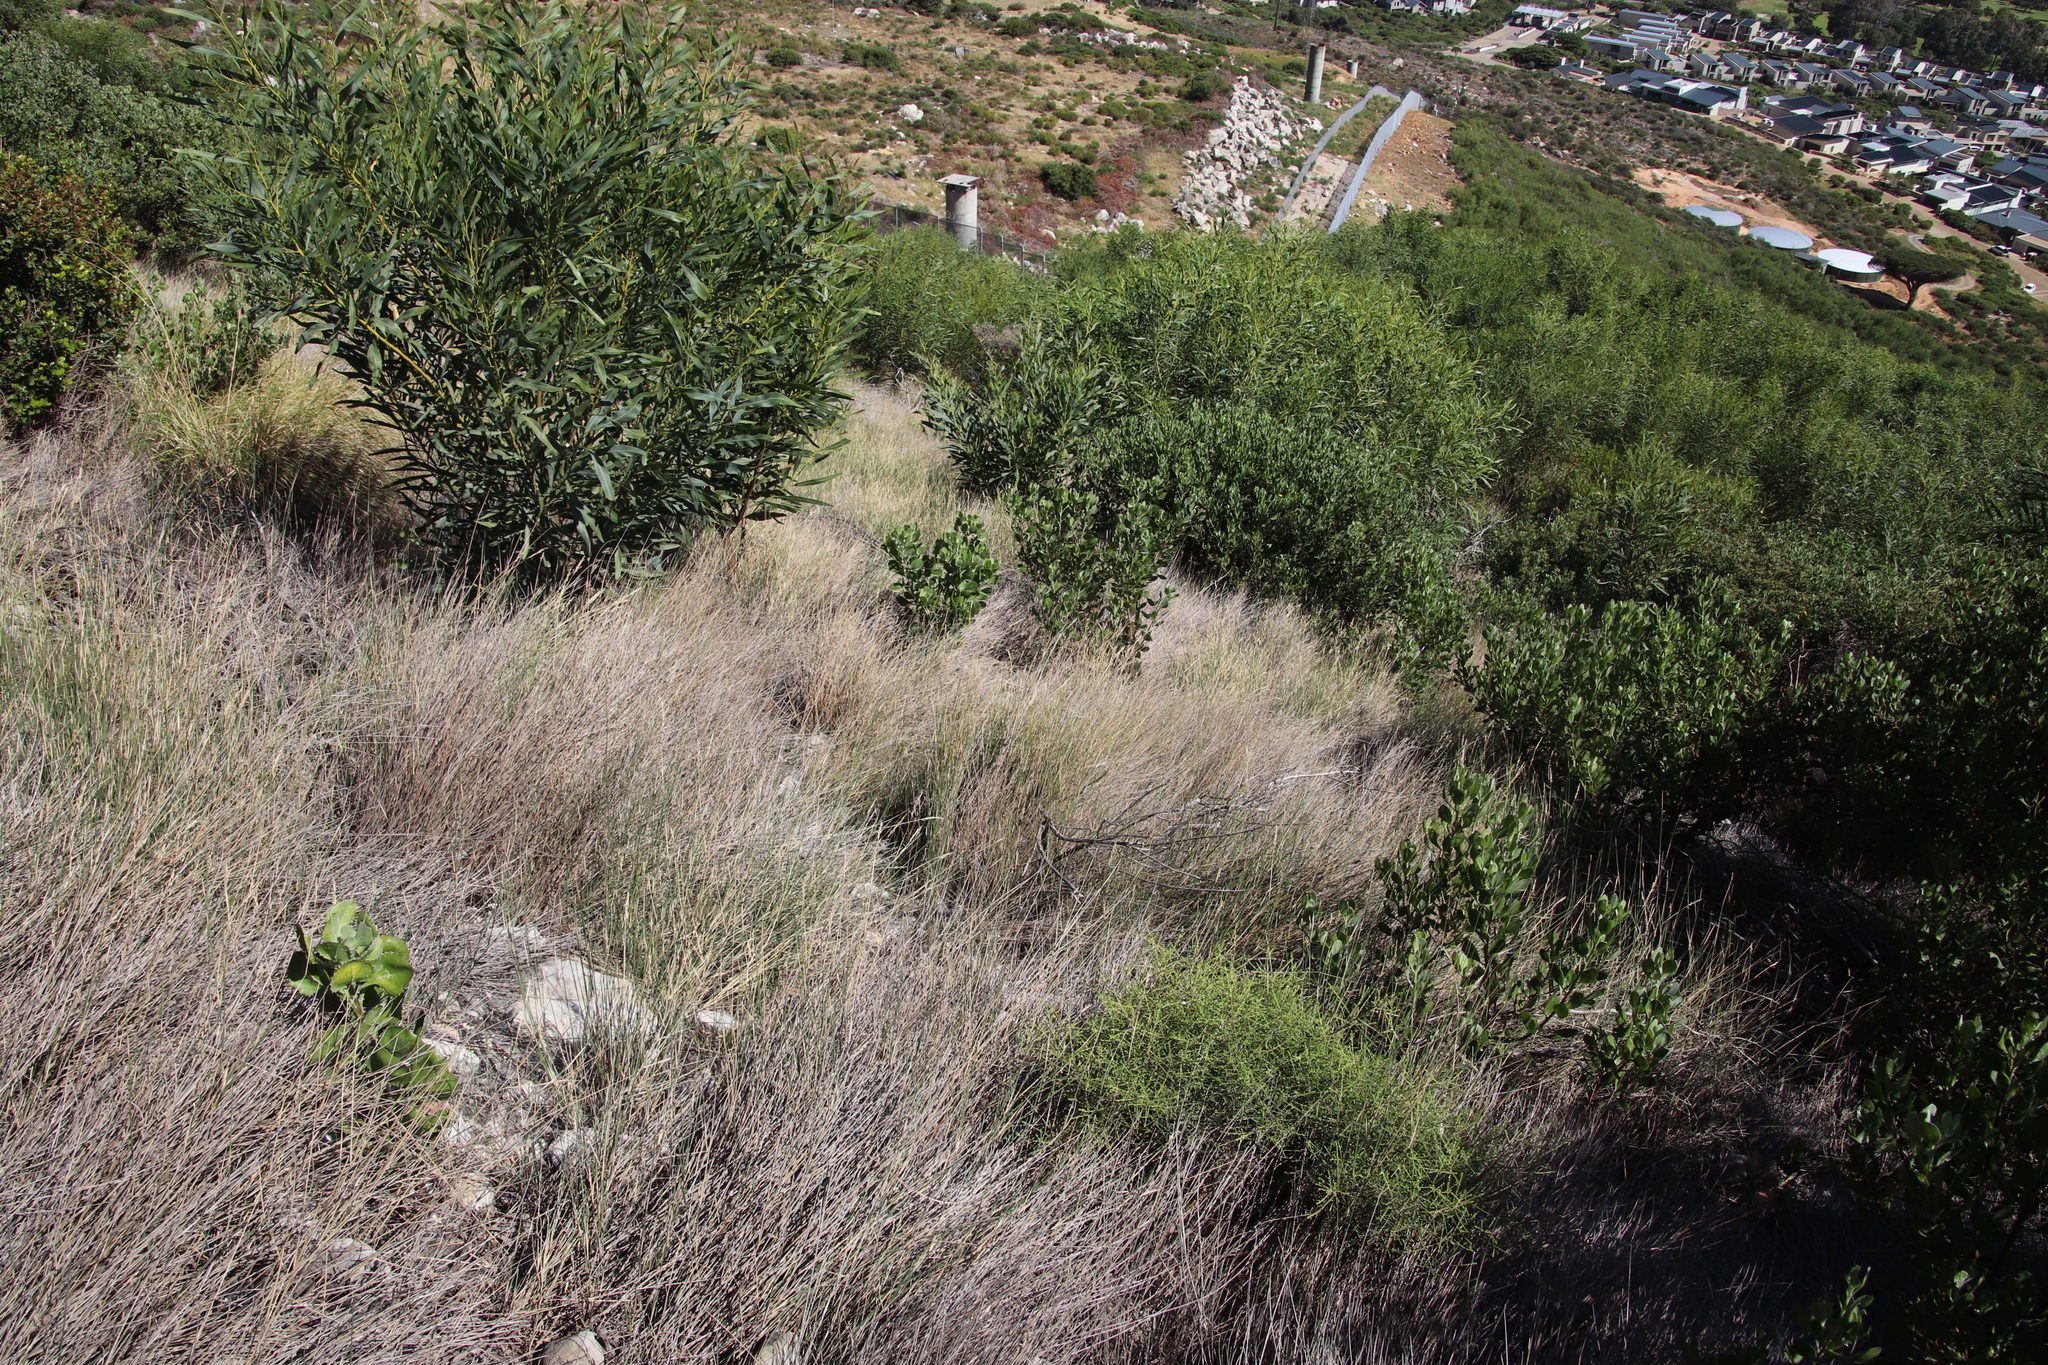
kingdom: Plantae
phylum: Tracheophyta
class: Magnoliopsida
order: Fabales
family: Fabaceae
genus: Acacia
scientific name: Acacia saligna
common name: Orange wattle
